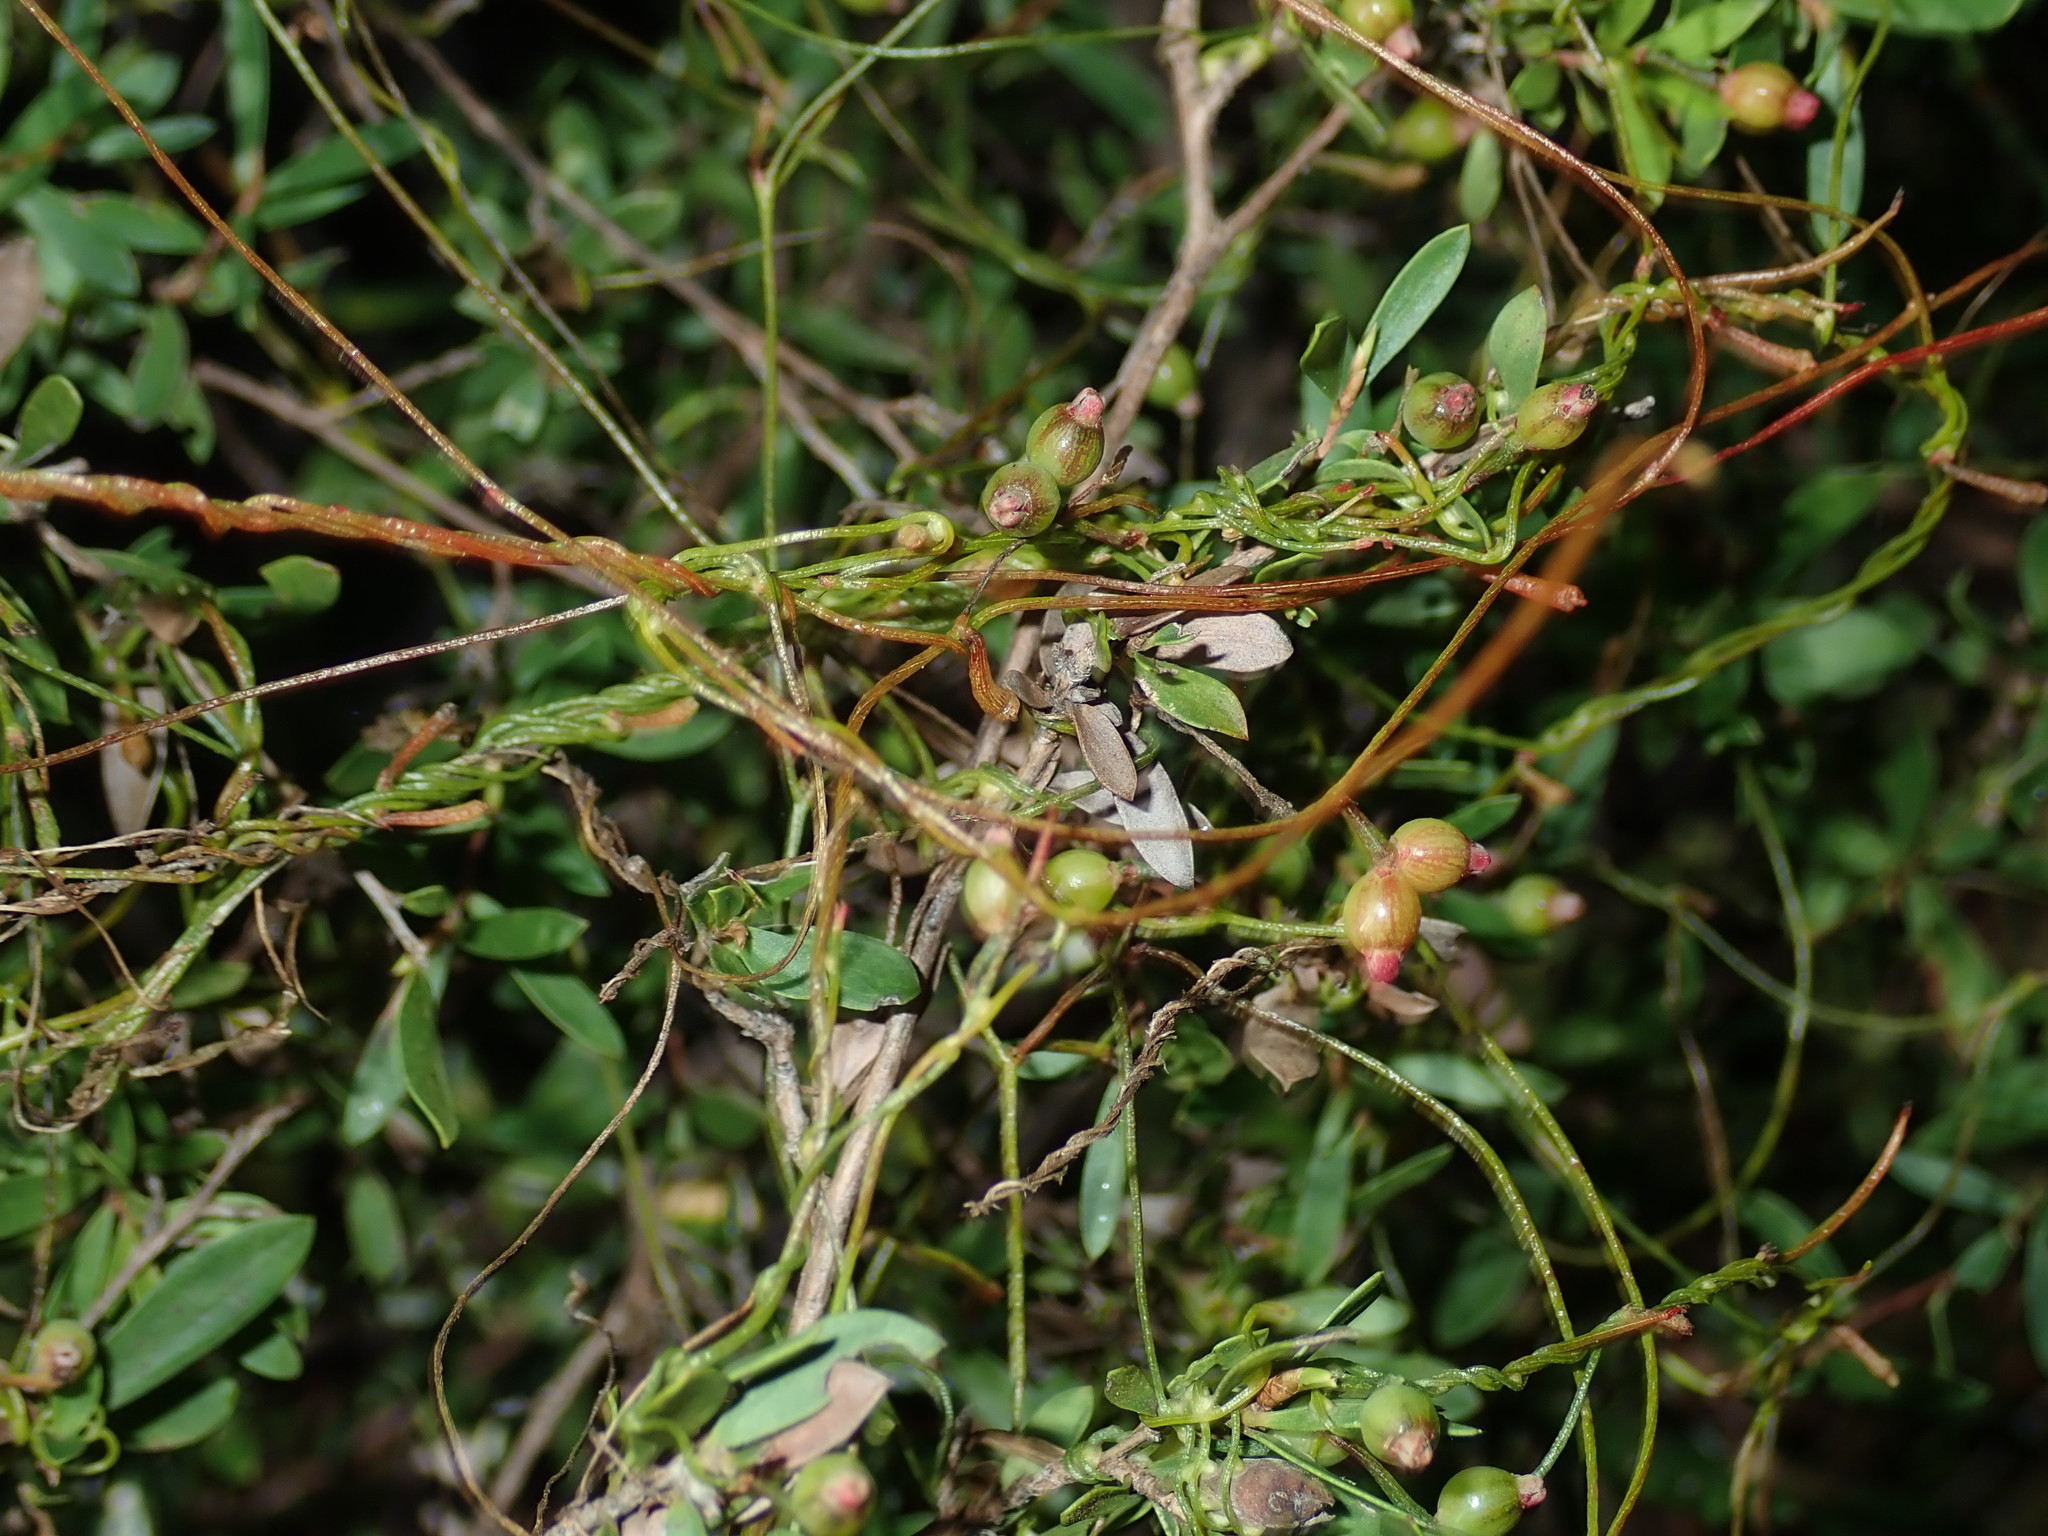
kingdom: Plantae
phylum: Tracheophyta
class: Magnoliopsida
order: Laurales
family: Lauraceae
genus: Cassytha
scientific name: Cassytha glabella
